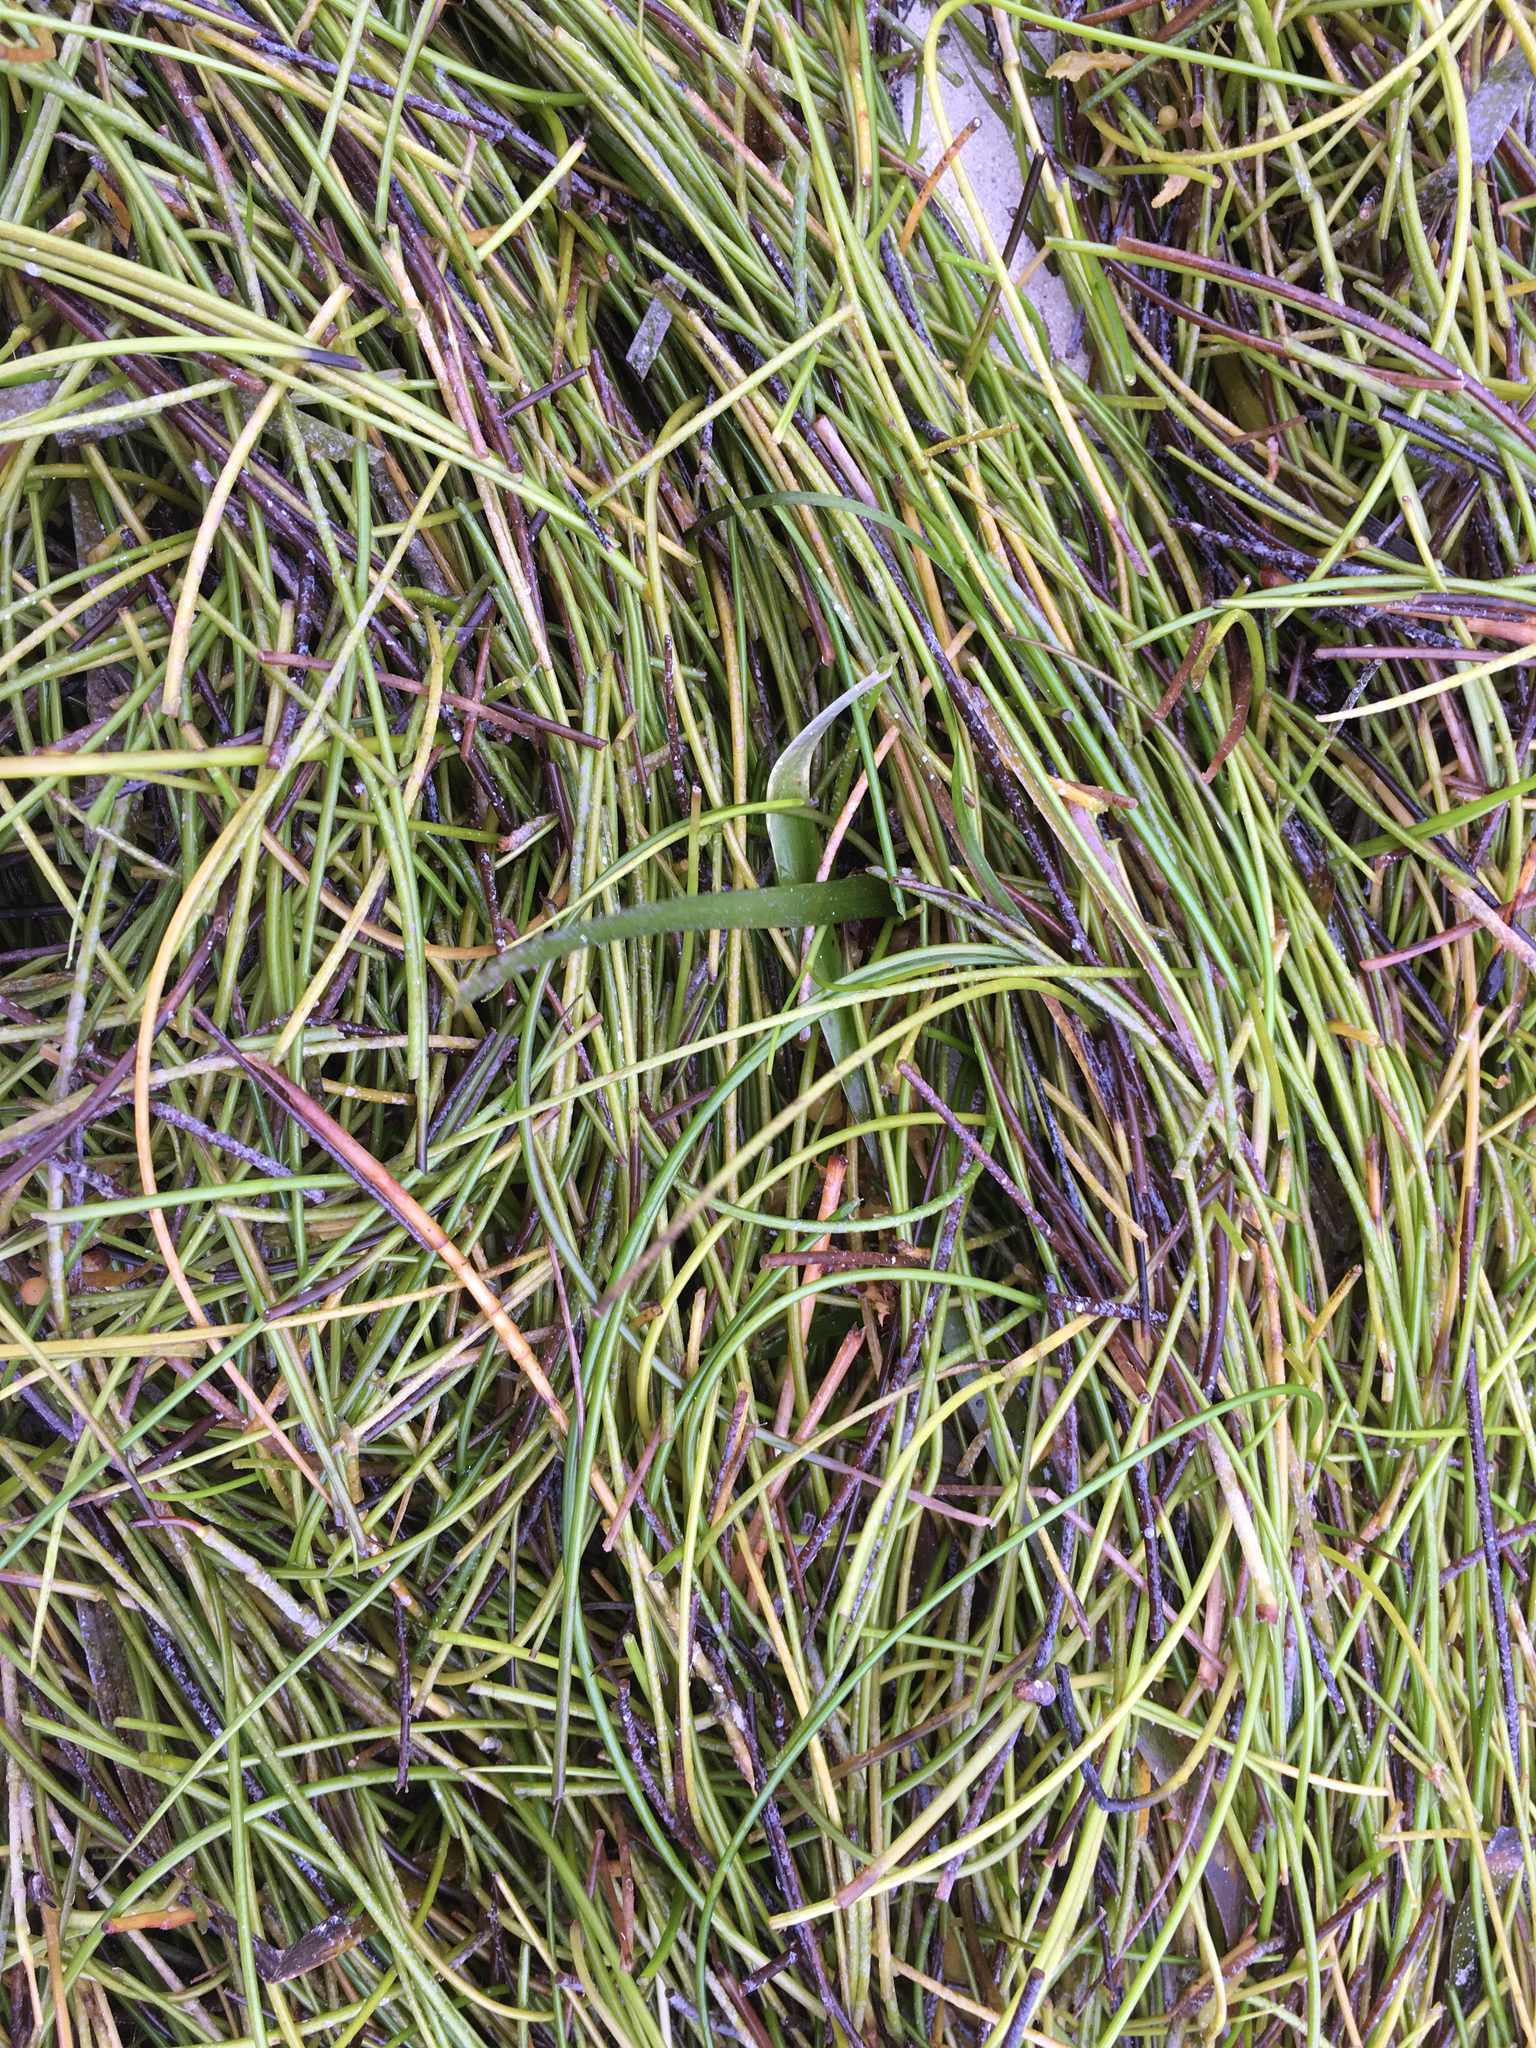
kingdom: Plantae
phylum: Tracheophyta
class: Liliopsida
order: Alismatales
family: Cymodoceaceae
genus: Syringodium
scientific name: Syringodium filiforme
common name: Manatee grass
